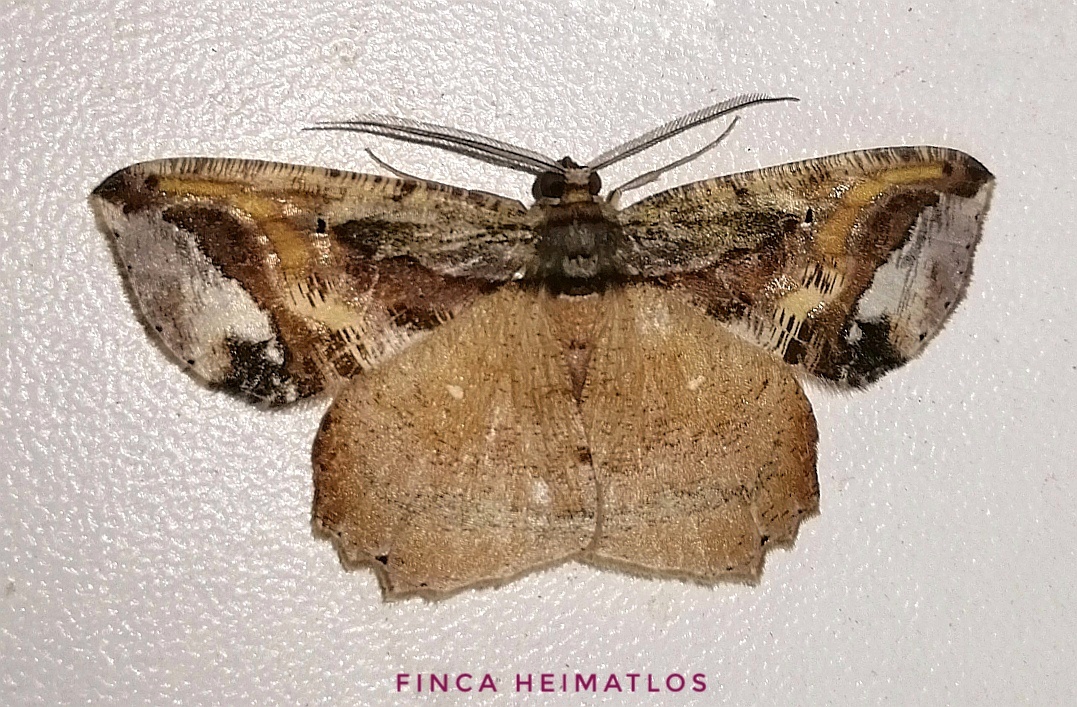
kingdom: Animalia
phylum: Arthropoda
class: Insecta
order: Lepidoptera
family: Geometridae
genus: Thysanopyga
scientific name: Thysanopyga
